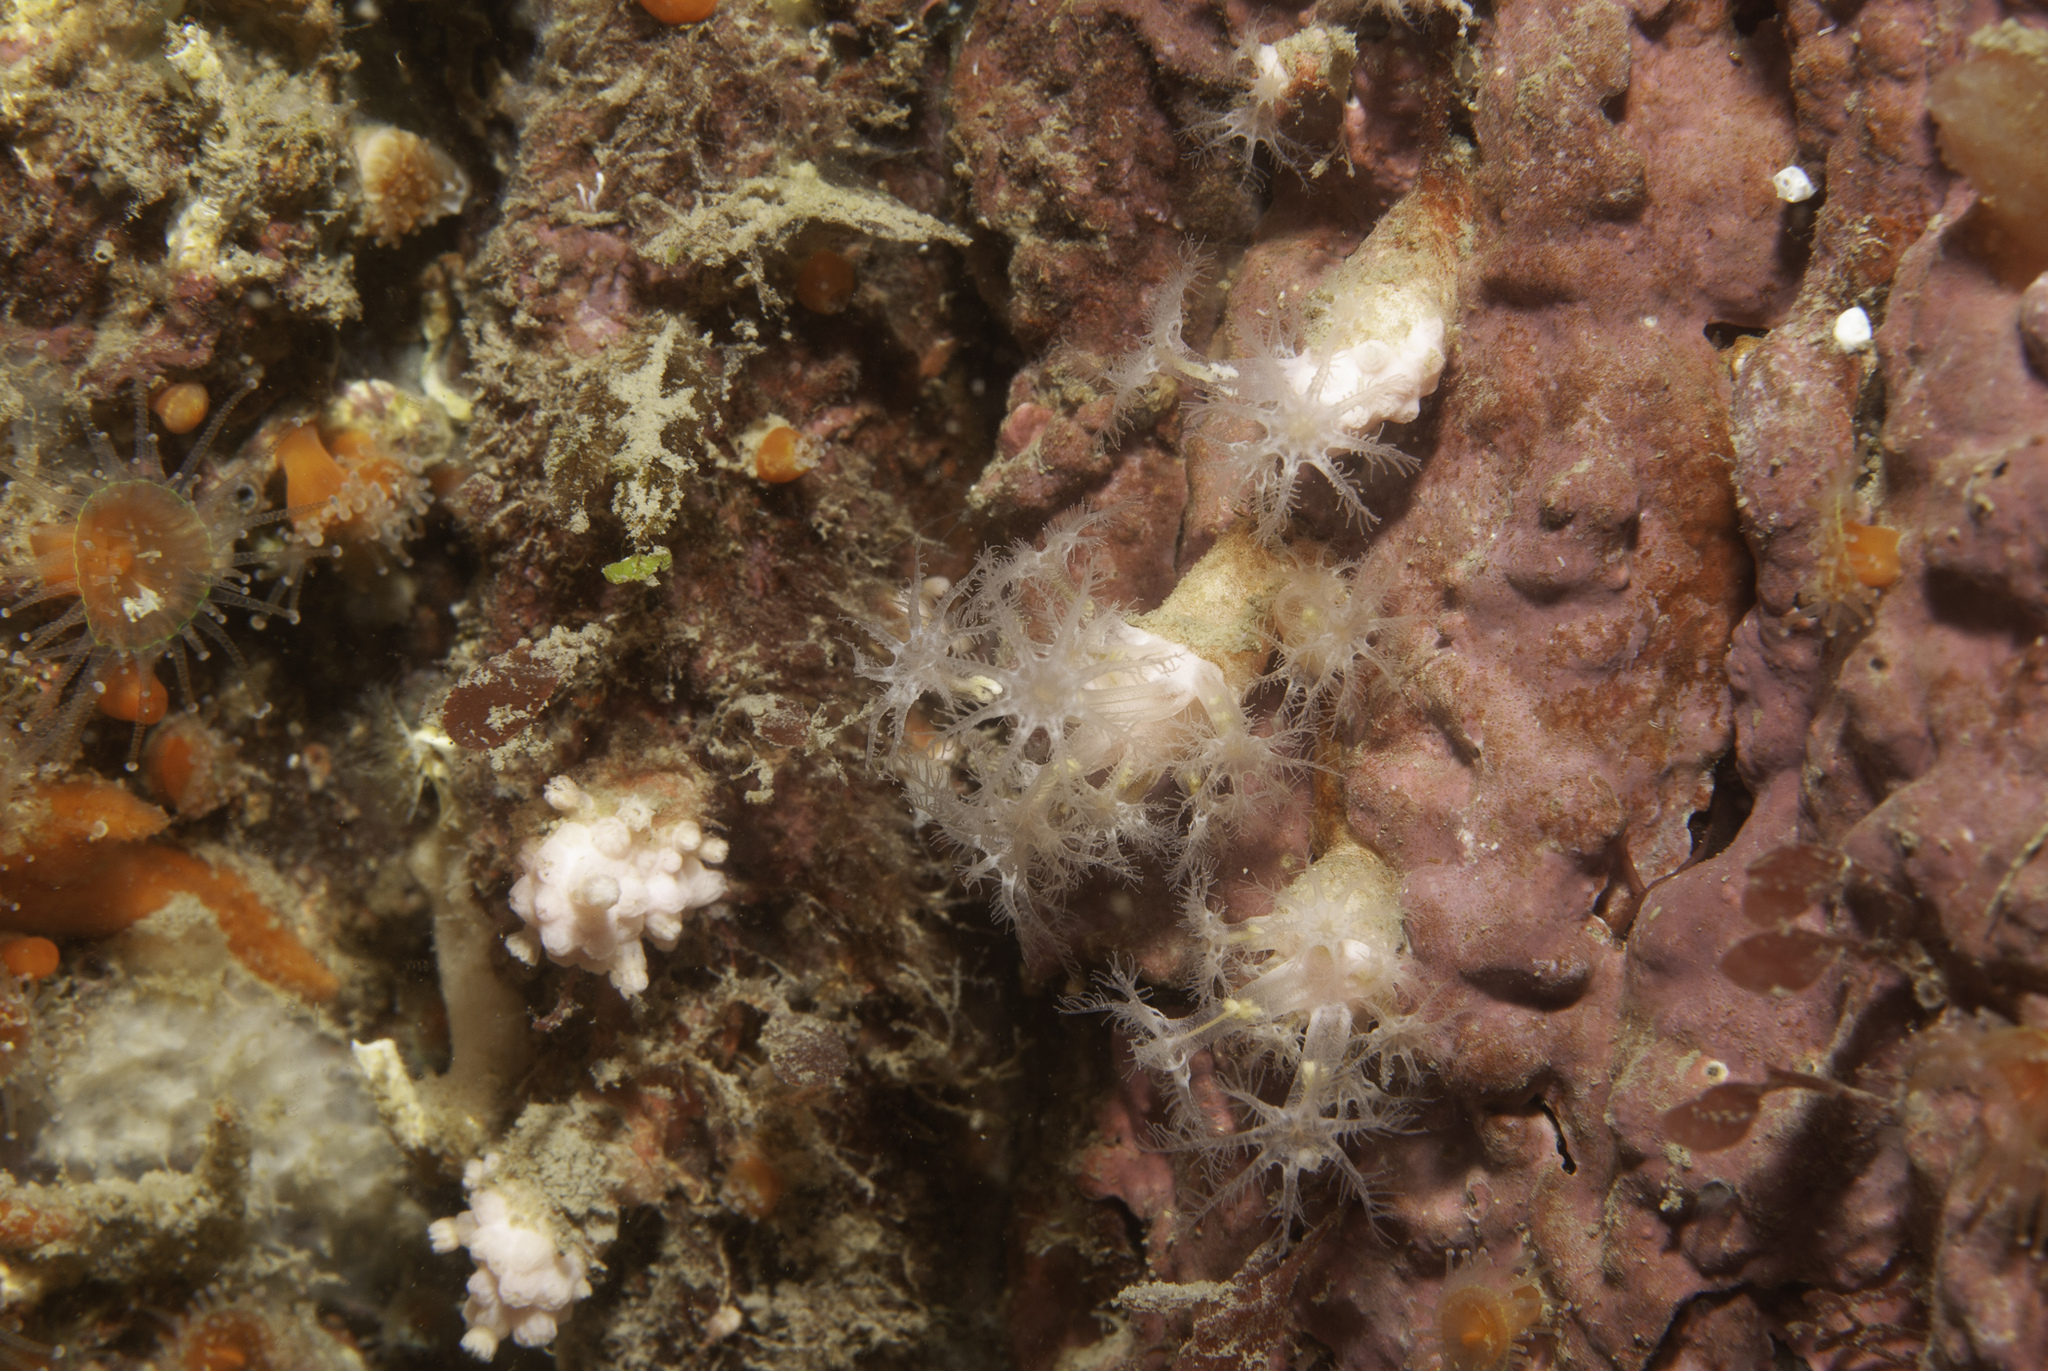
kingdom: Animalia
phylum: Cnidaria
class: Anthozoa
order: Malacalcyonacea
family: Alcyoniidae
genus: Alcyonium
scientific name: Alcyonium hibernicum
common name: Pink sea fingers
